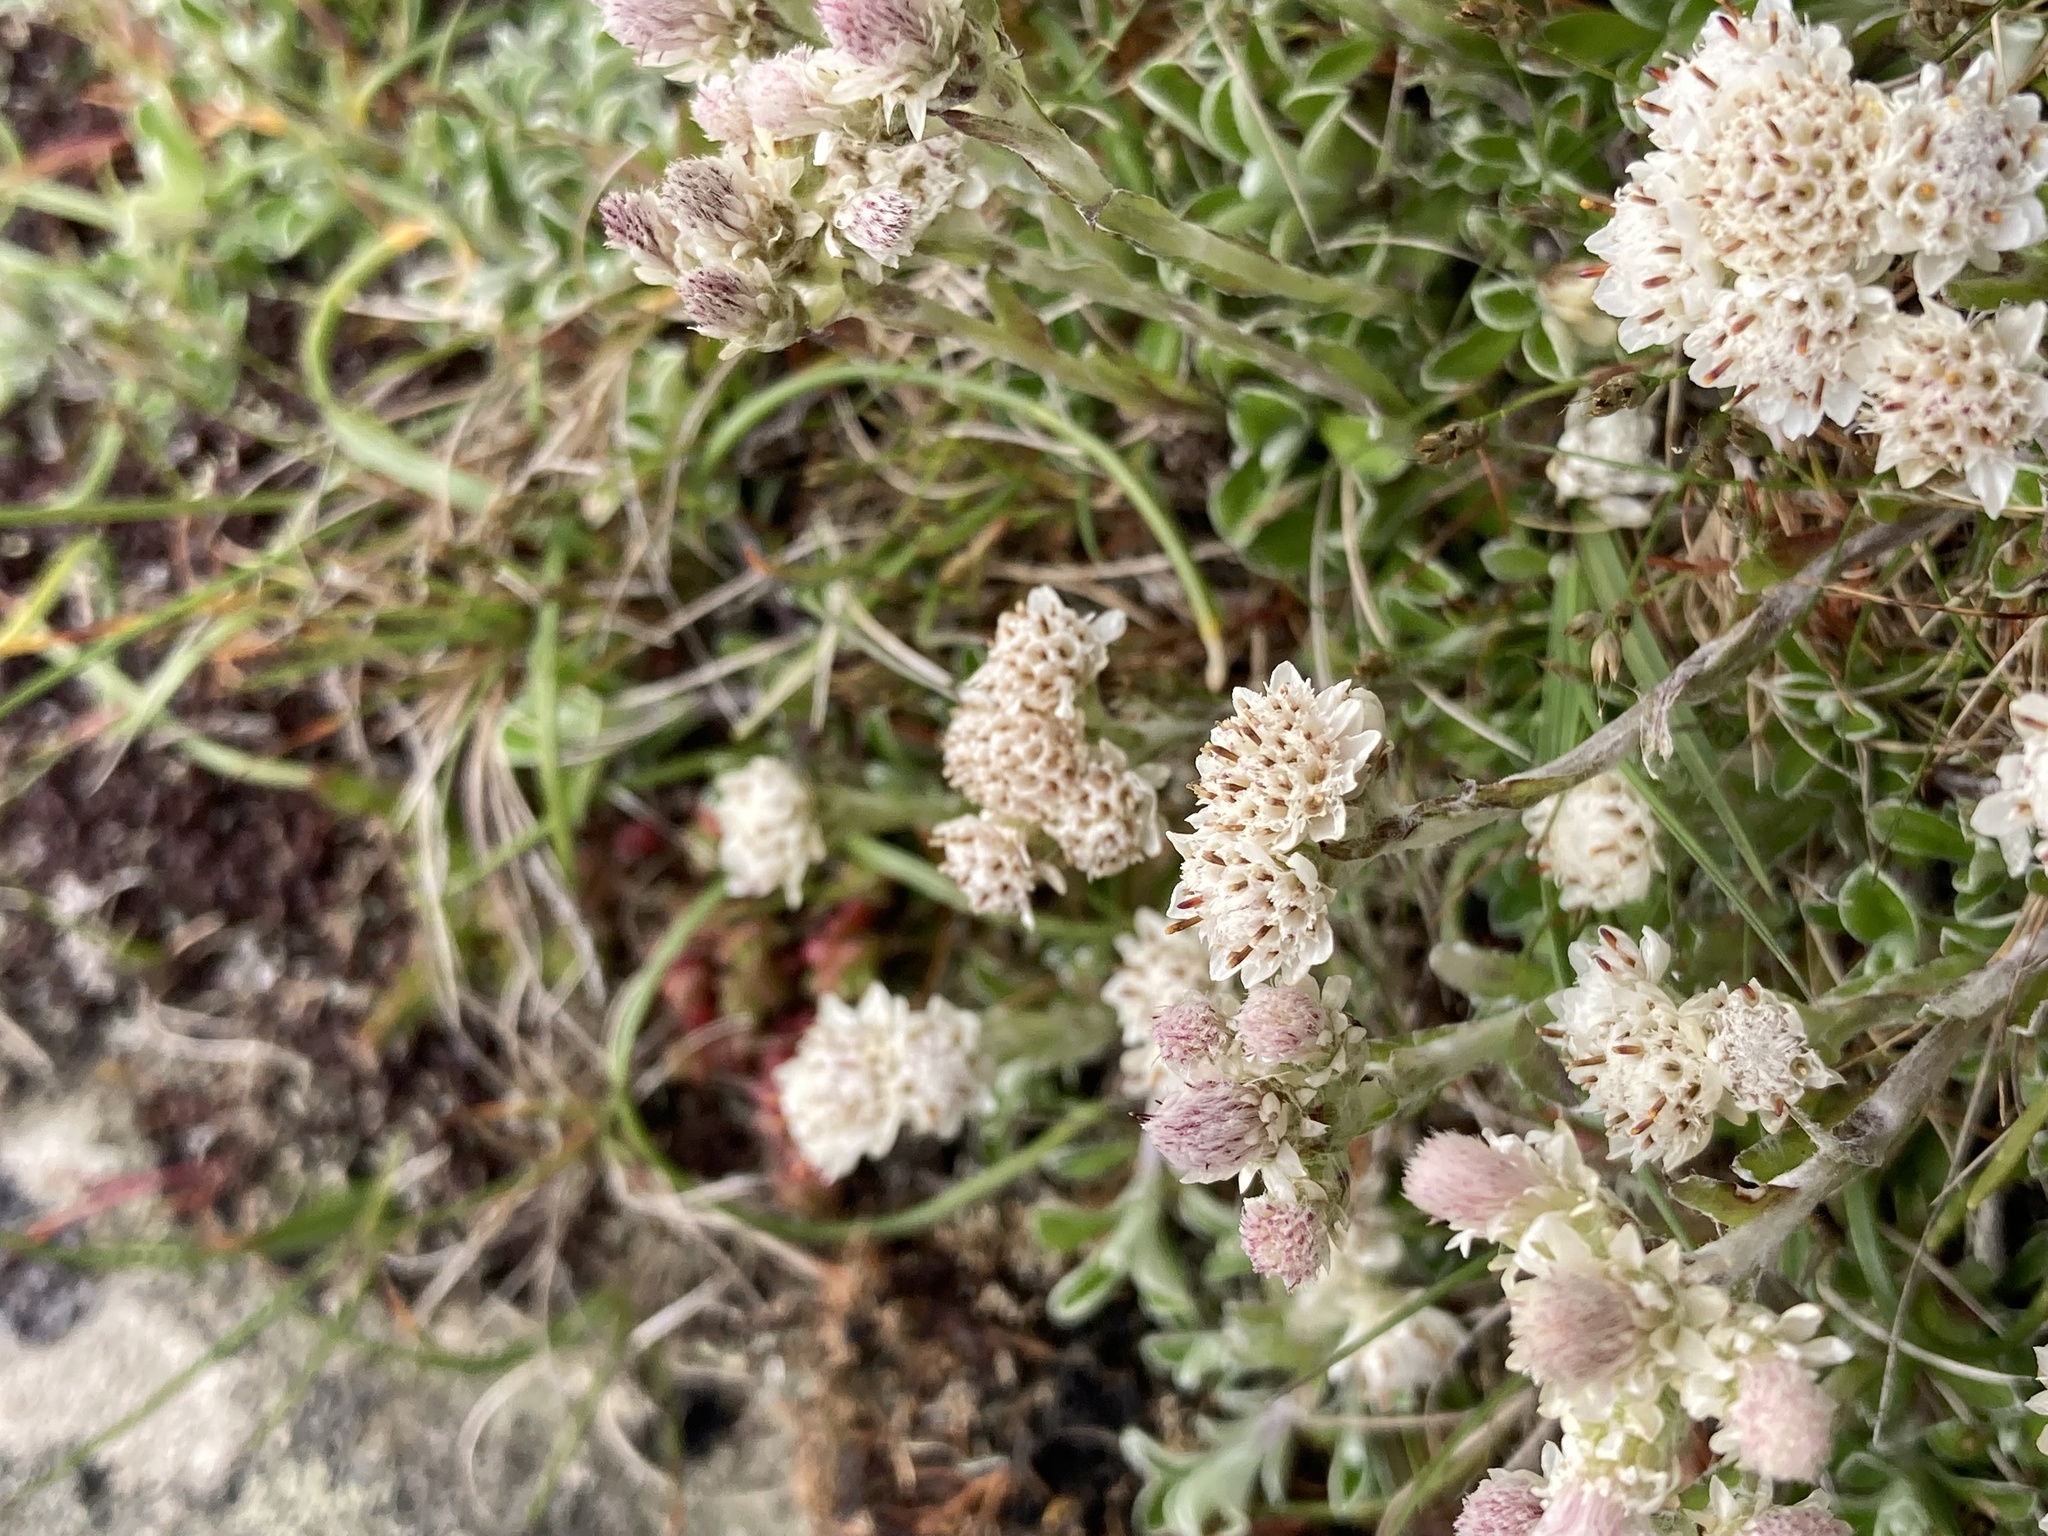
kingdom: Plantae
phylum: Tracheophyta
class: Magnoliopsida
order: Asterales
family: Asteraceae
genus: Antennaria
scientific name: Antennaria dioica
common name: Mountain everlasting
